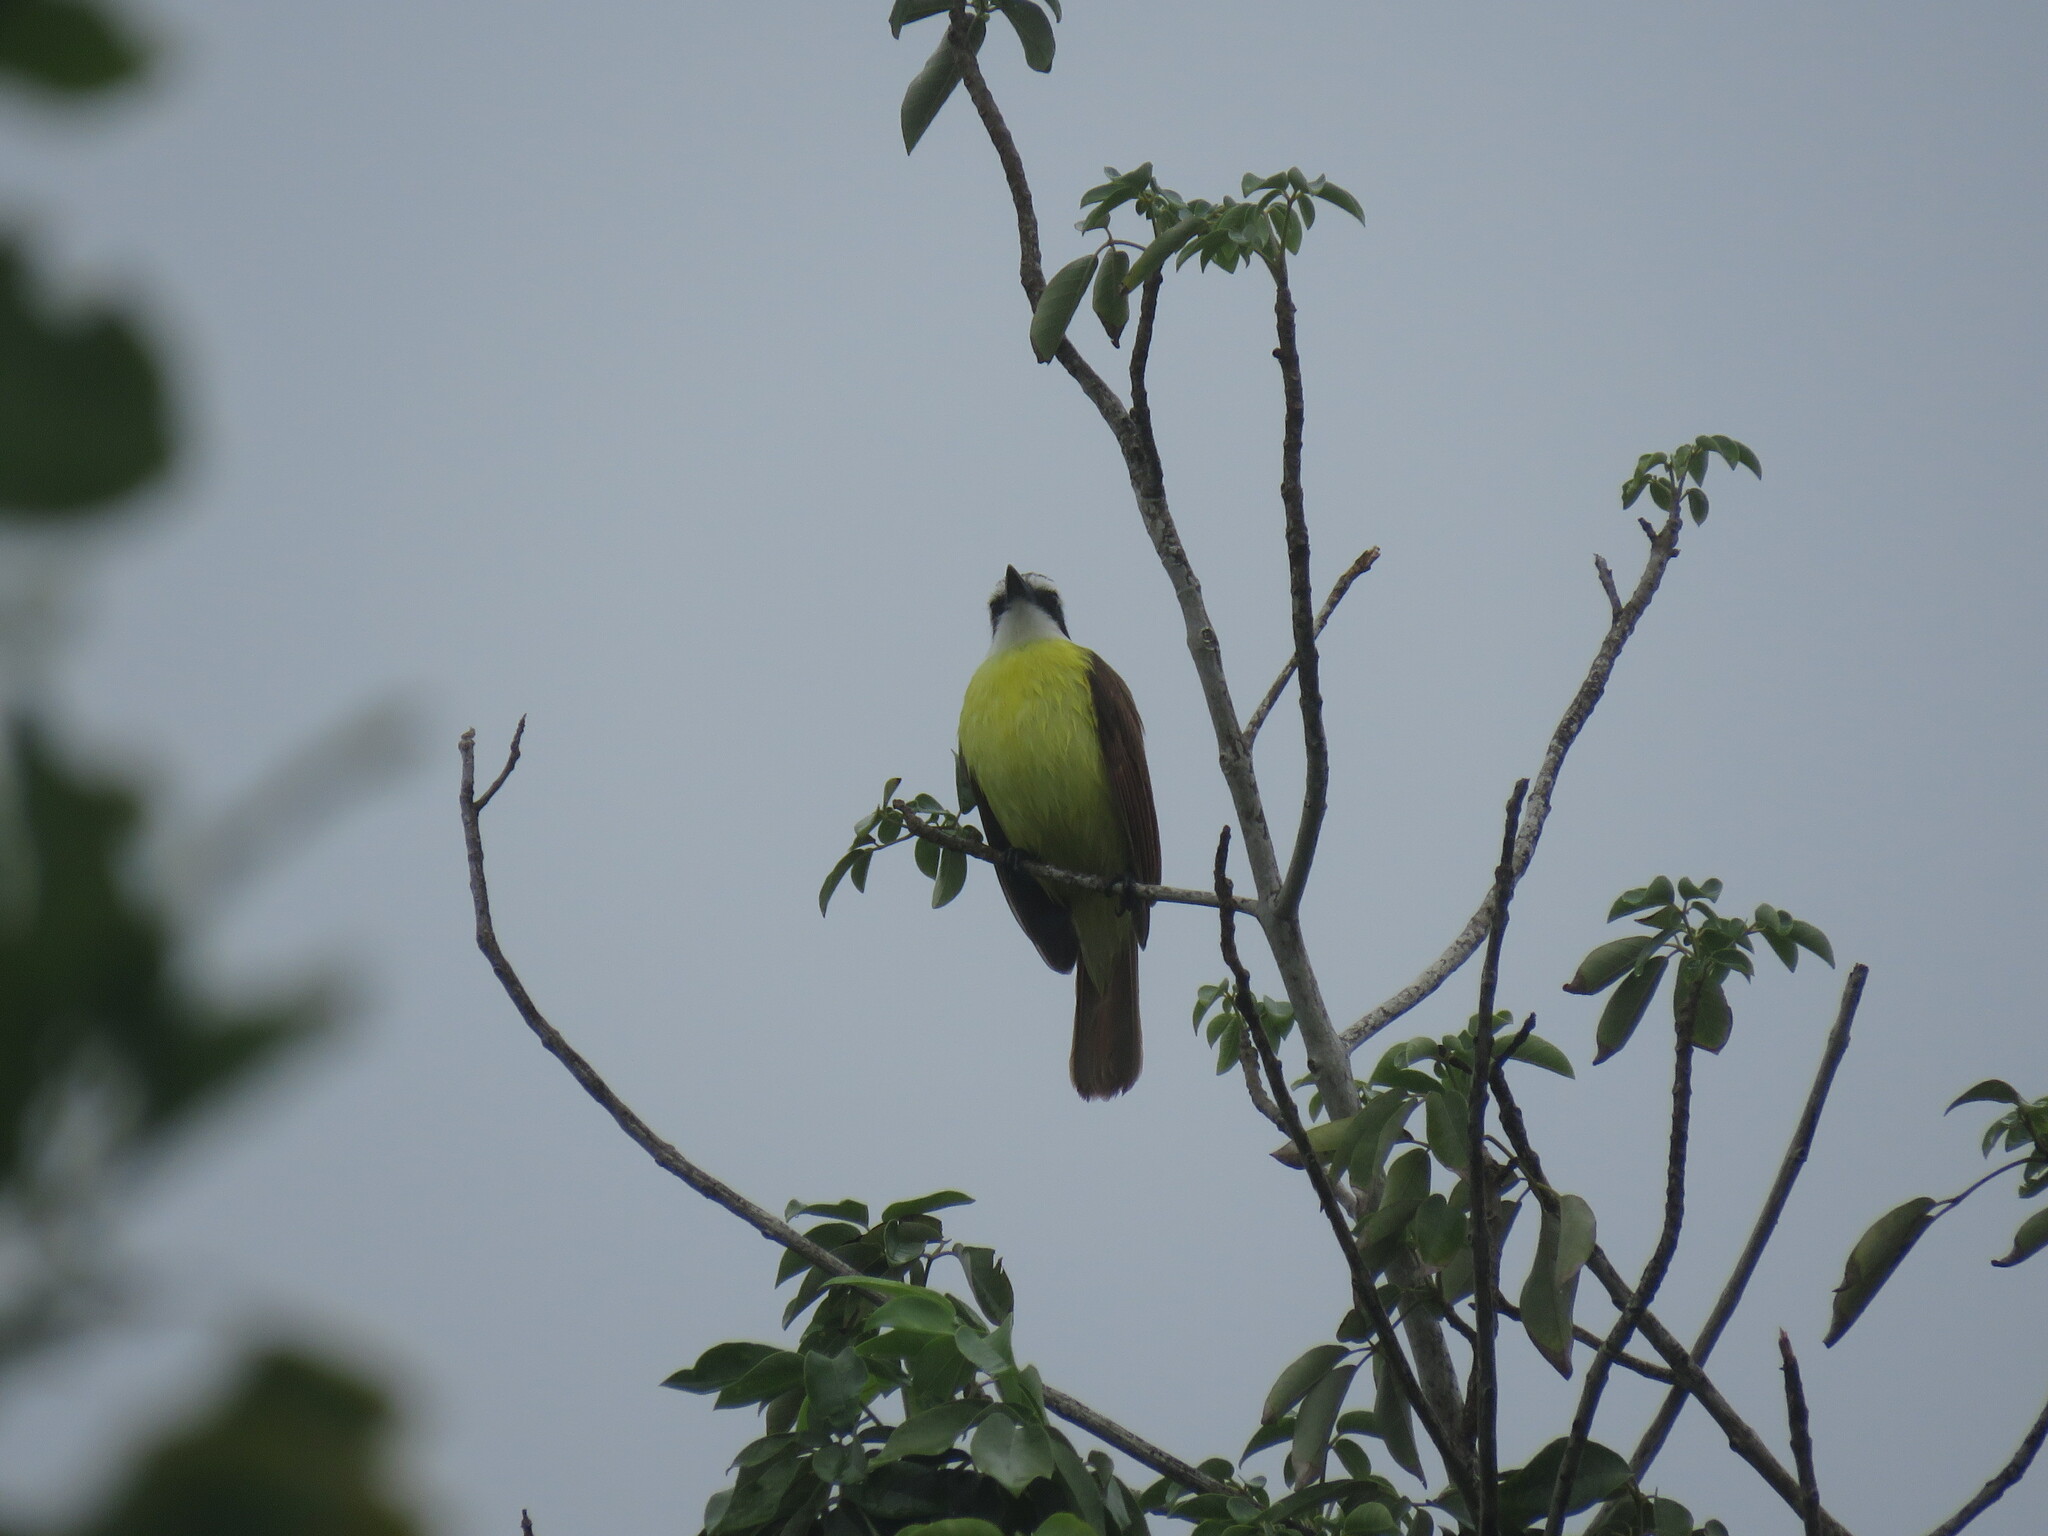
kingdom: Animalia
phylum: Chordata
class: Aves
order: Passeriformes
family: Tyrannidae
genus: Pitangus
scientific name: Pitangus sulphuratus
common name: Great kiskadee
